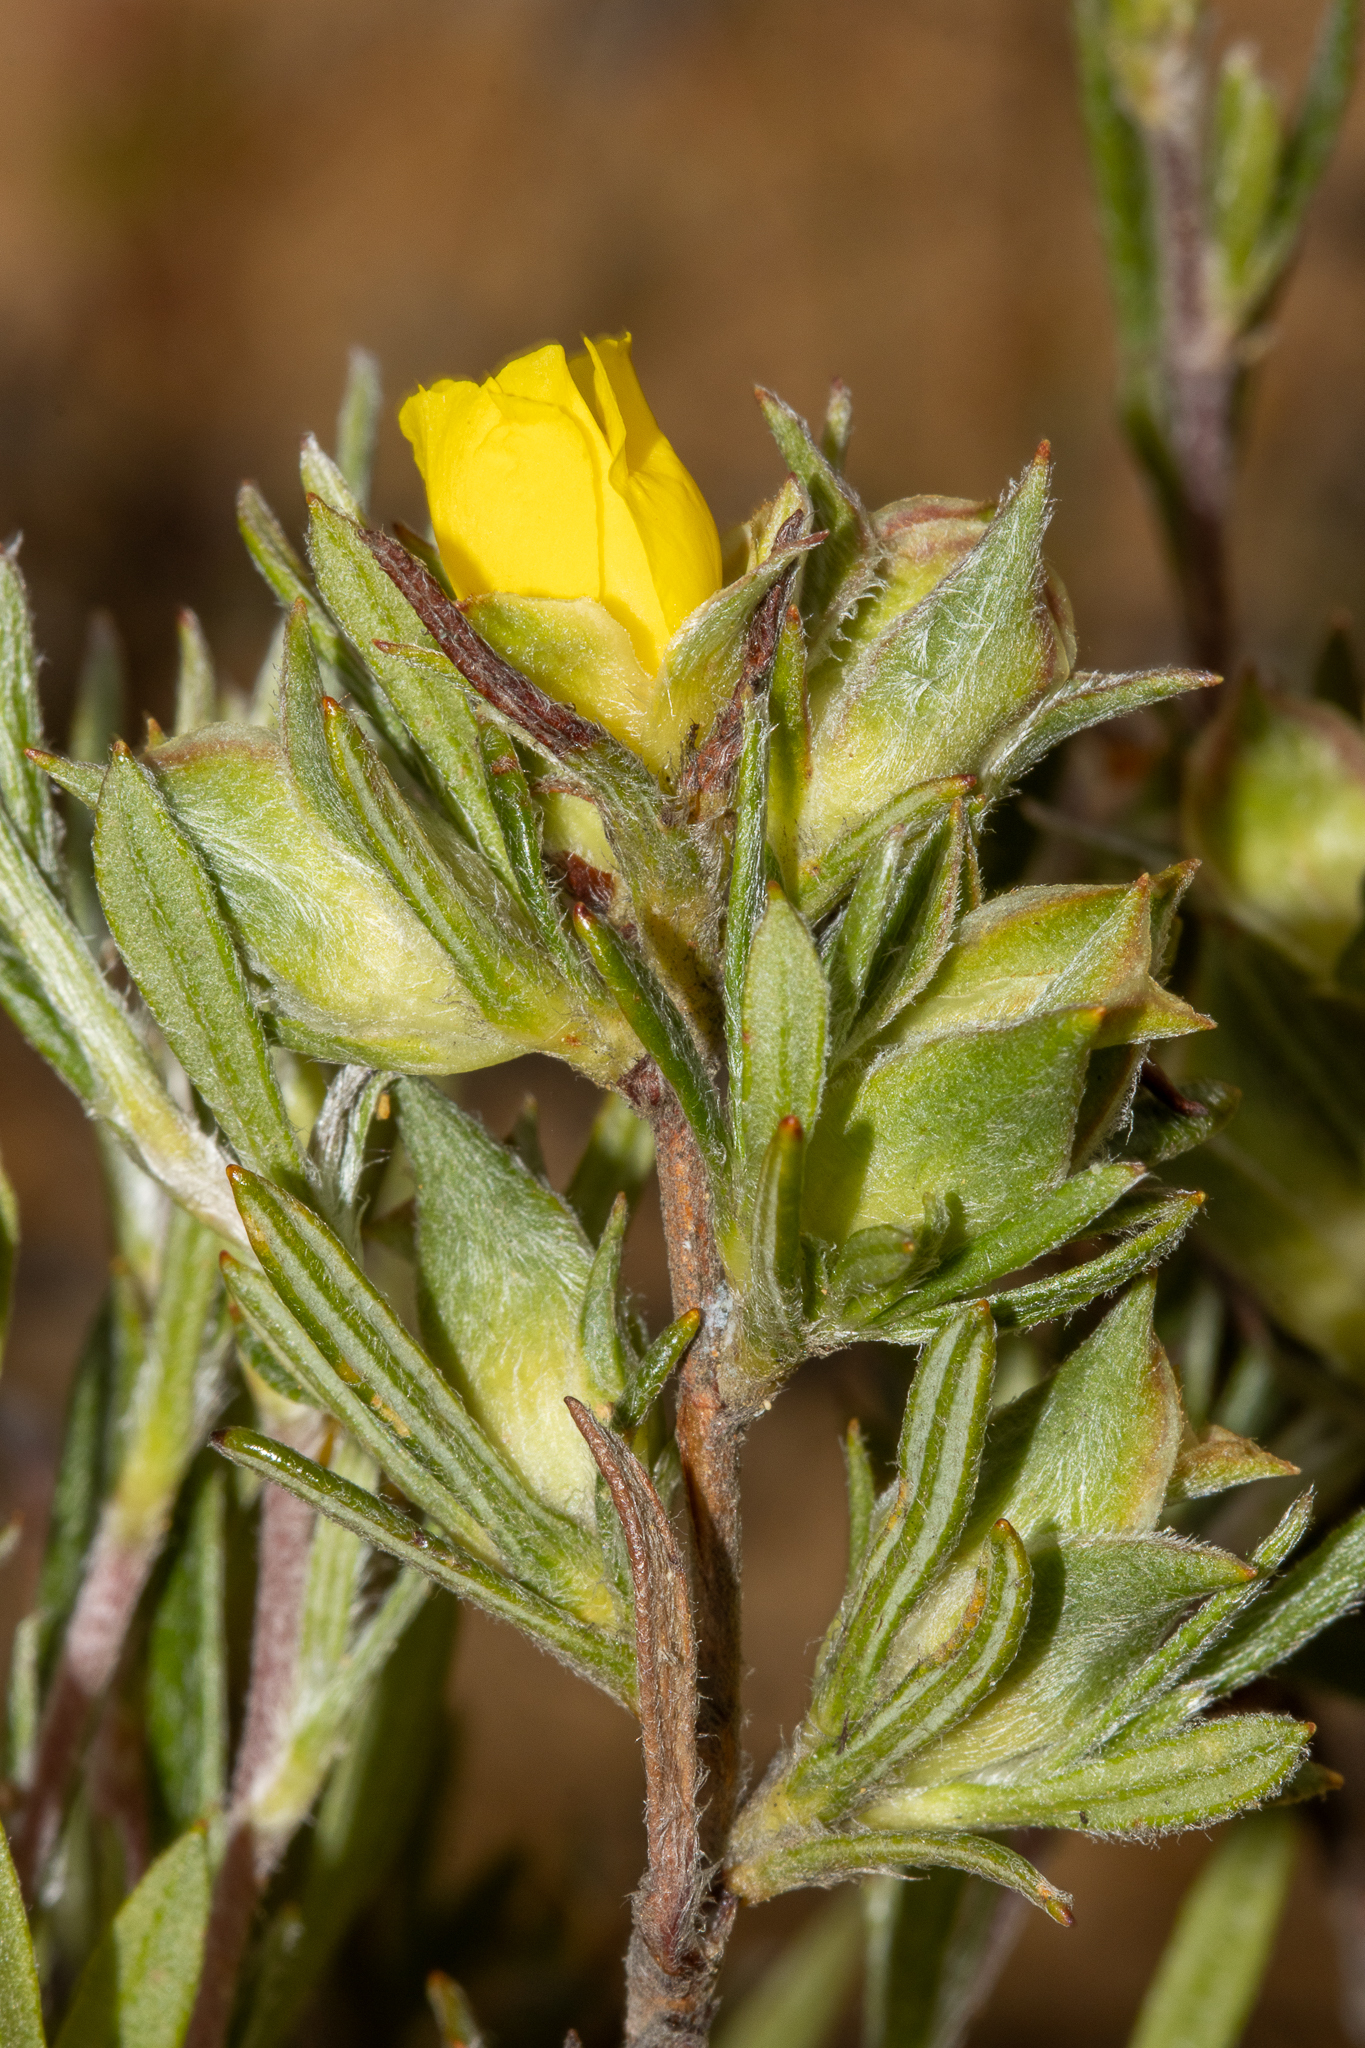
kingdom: Plantae
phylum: Tracheophyta
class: Magnoliopsida
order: Dilleniales
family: Dilleniaceae
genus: Hibbertia
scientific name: Hibbertia squarrosa
